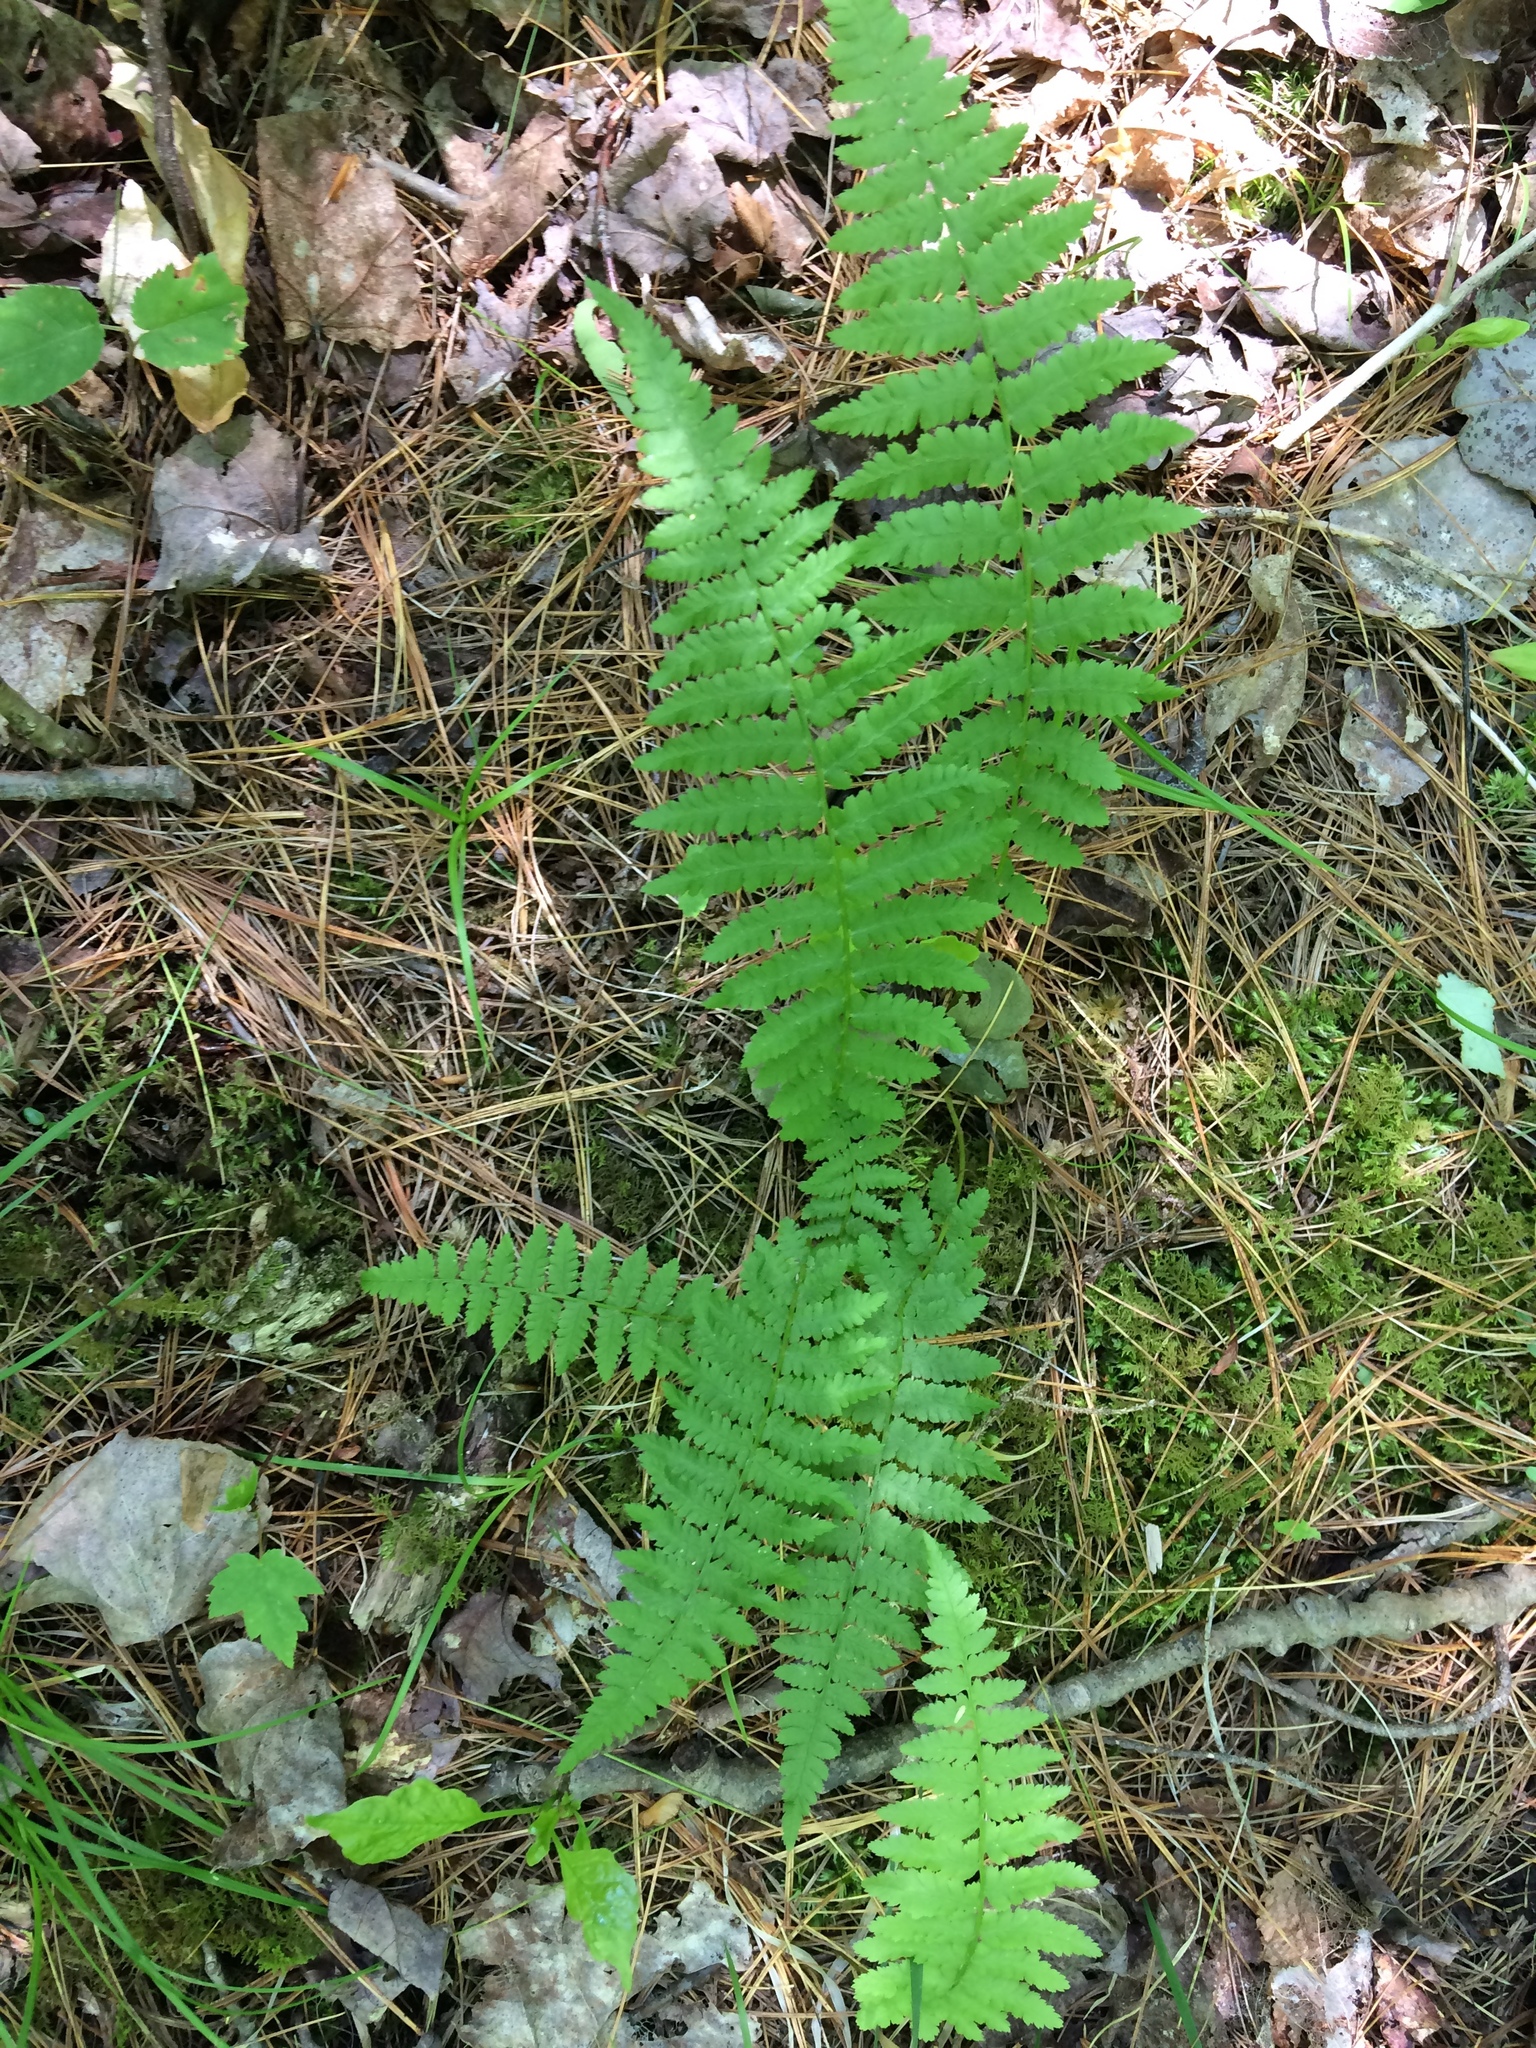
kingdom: Plantae
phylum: Tracheophyta
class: Polypodiopsida
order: Polypodiales
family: Athyriaceae
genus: Athyrium
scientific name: Athyrium angustum
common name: Northern lady fern
